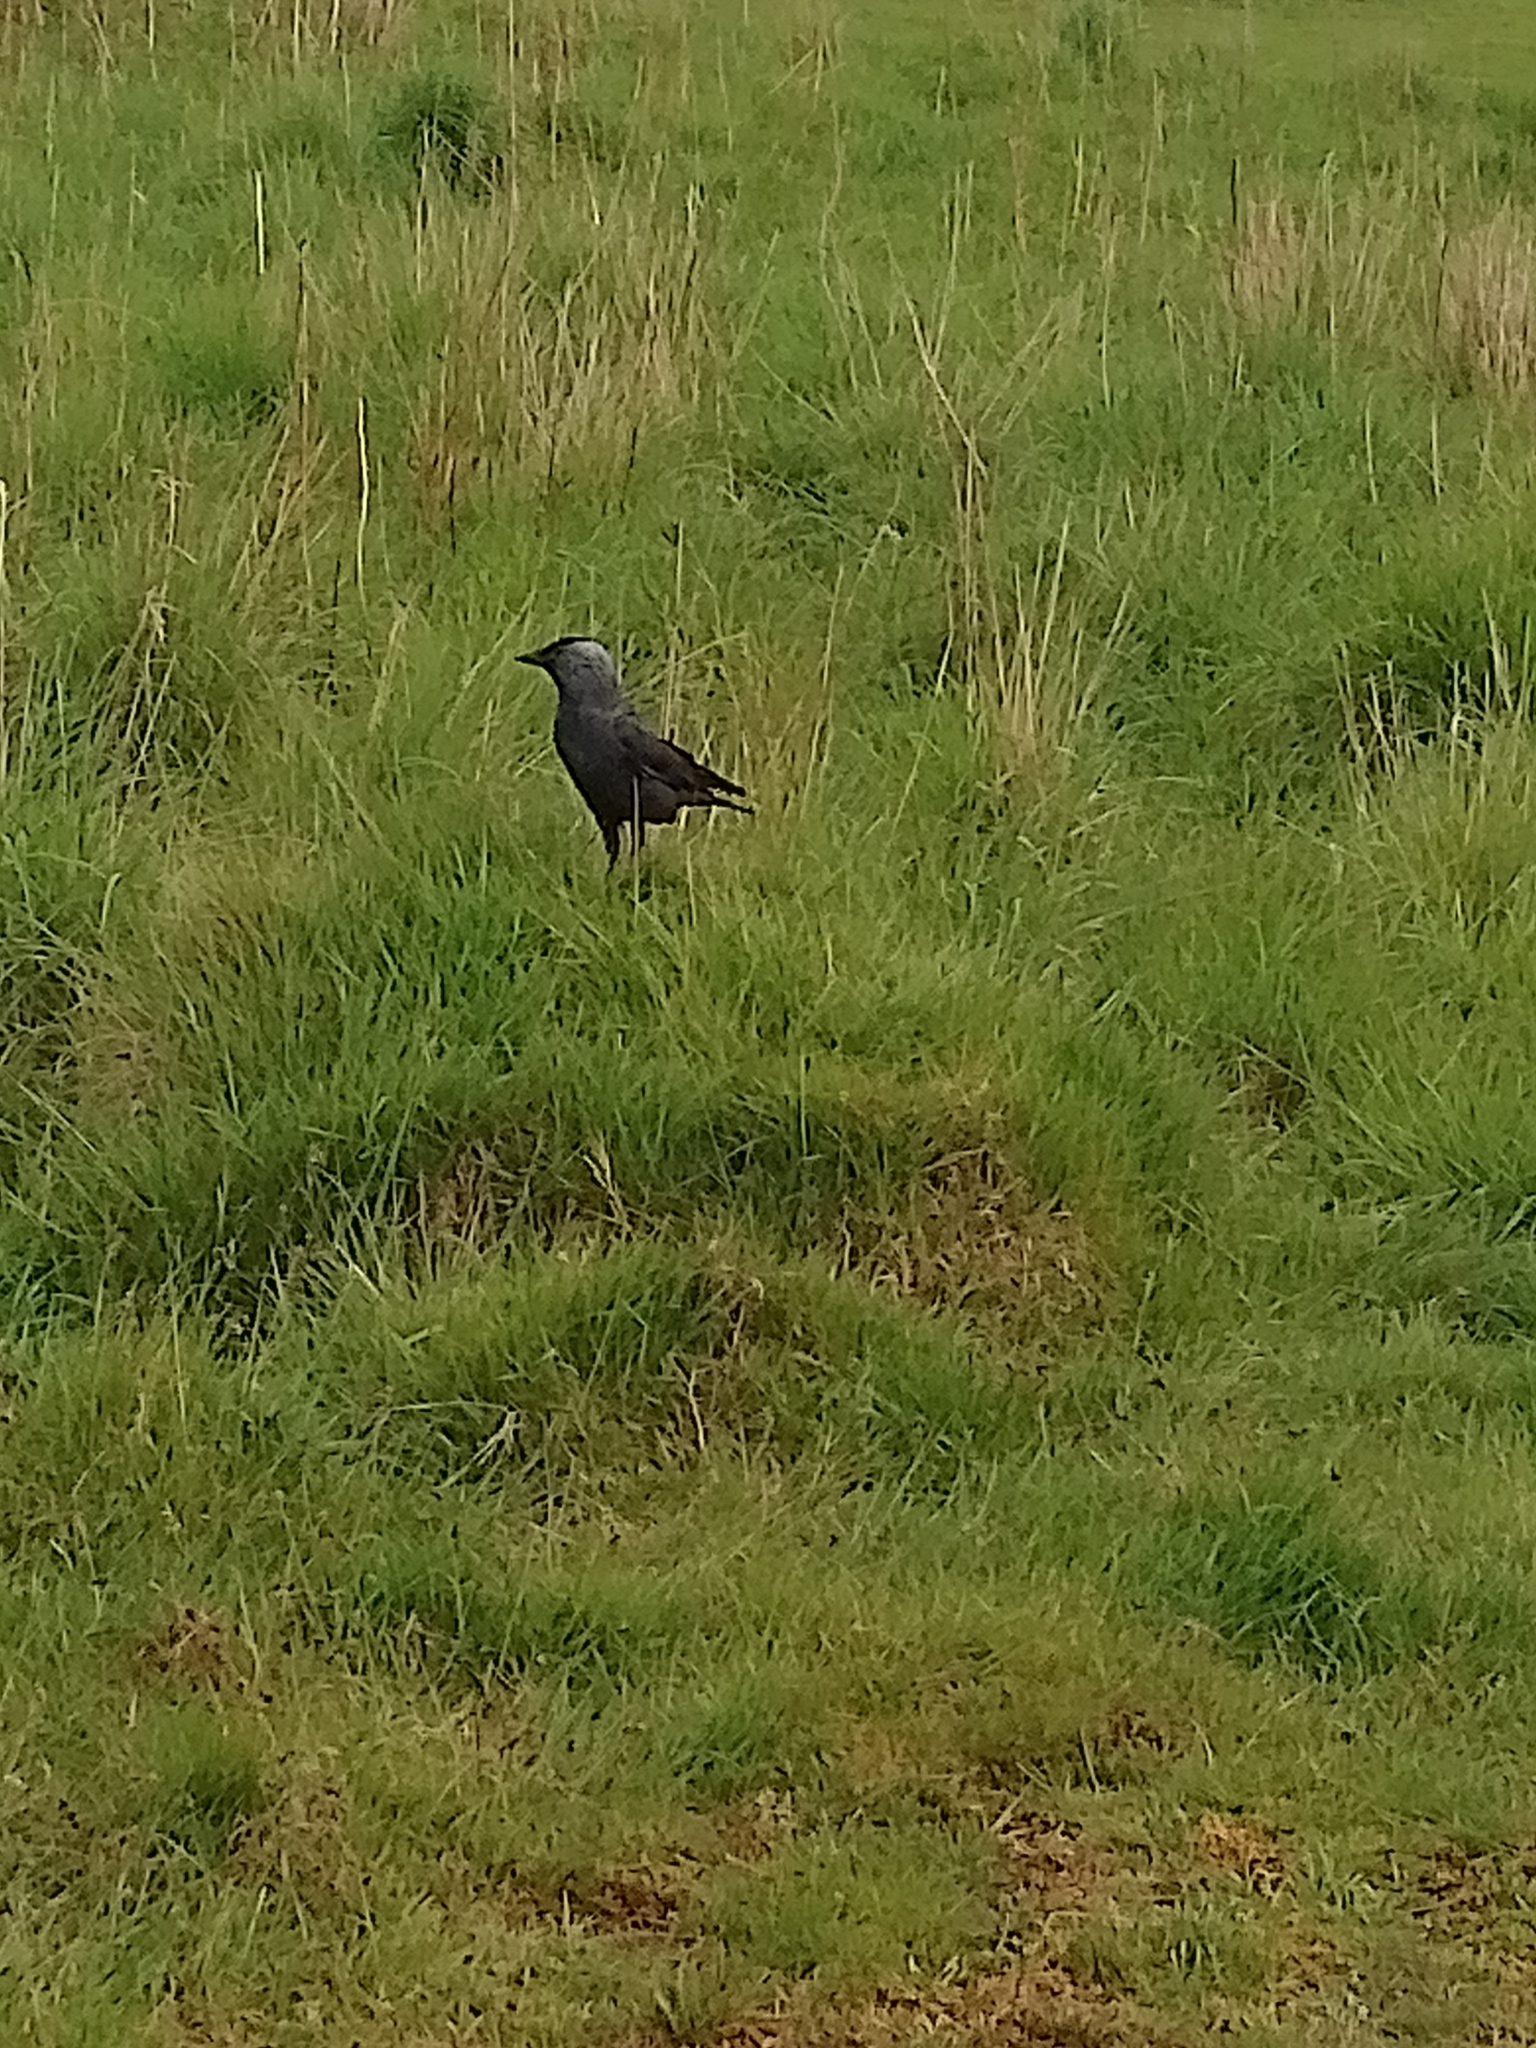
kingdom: Animalia
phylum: Chordata
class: Aves
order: Passeriformes
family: Corvidae
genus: Coloeus
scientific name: Coloeus monedula
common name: Western jackdaw
